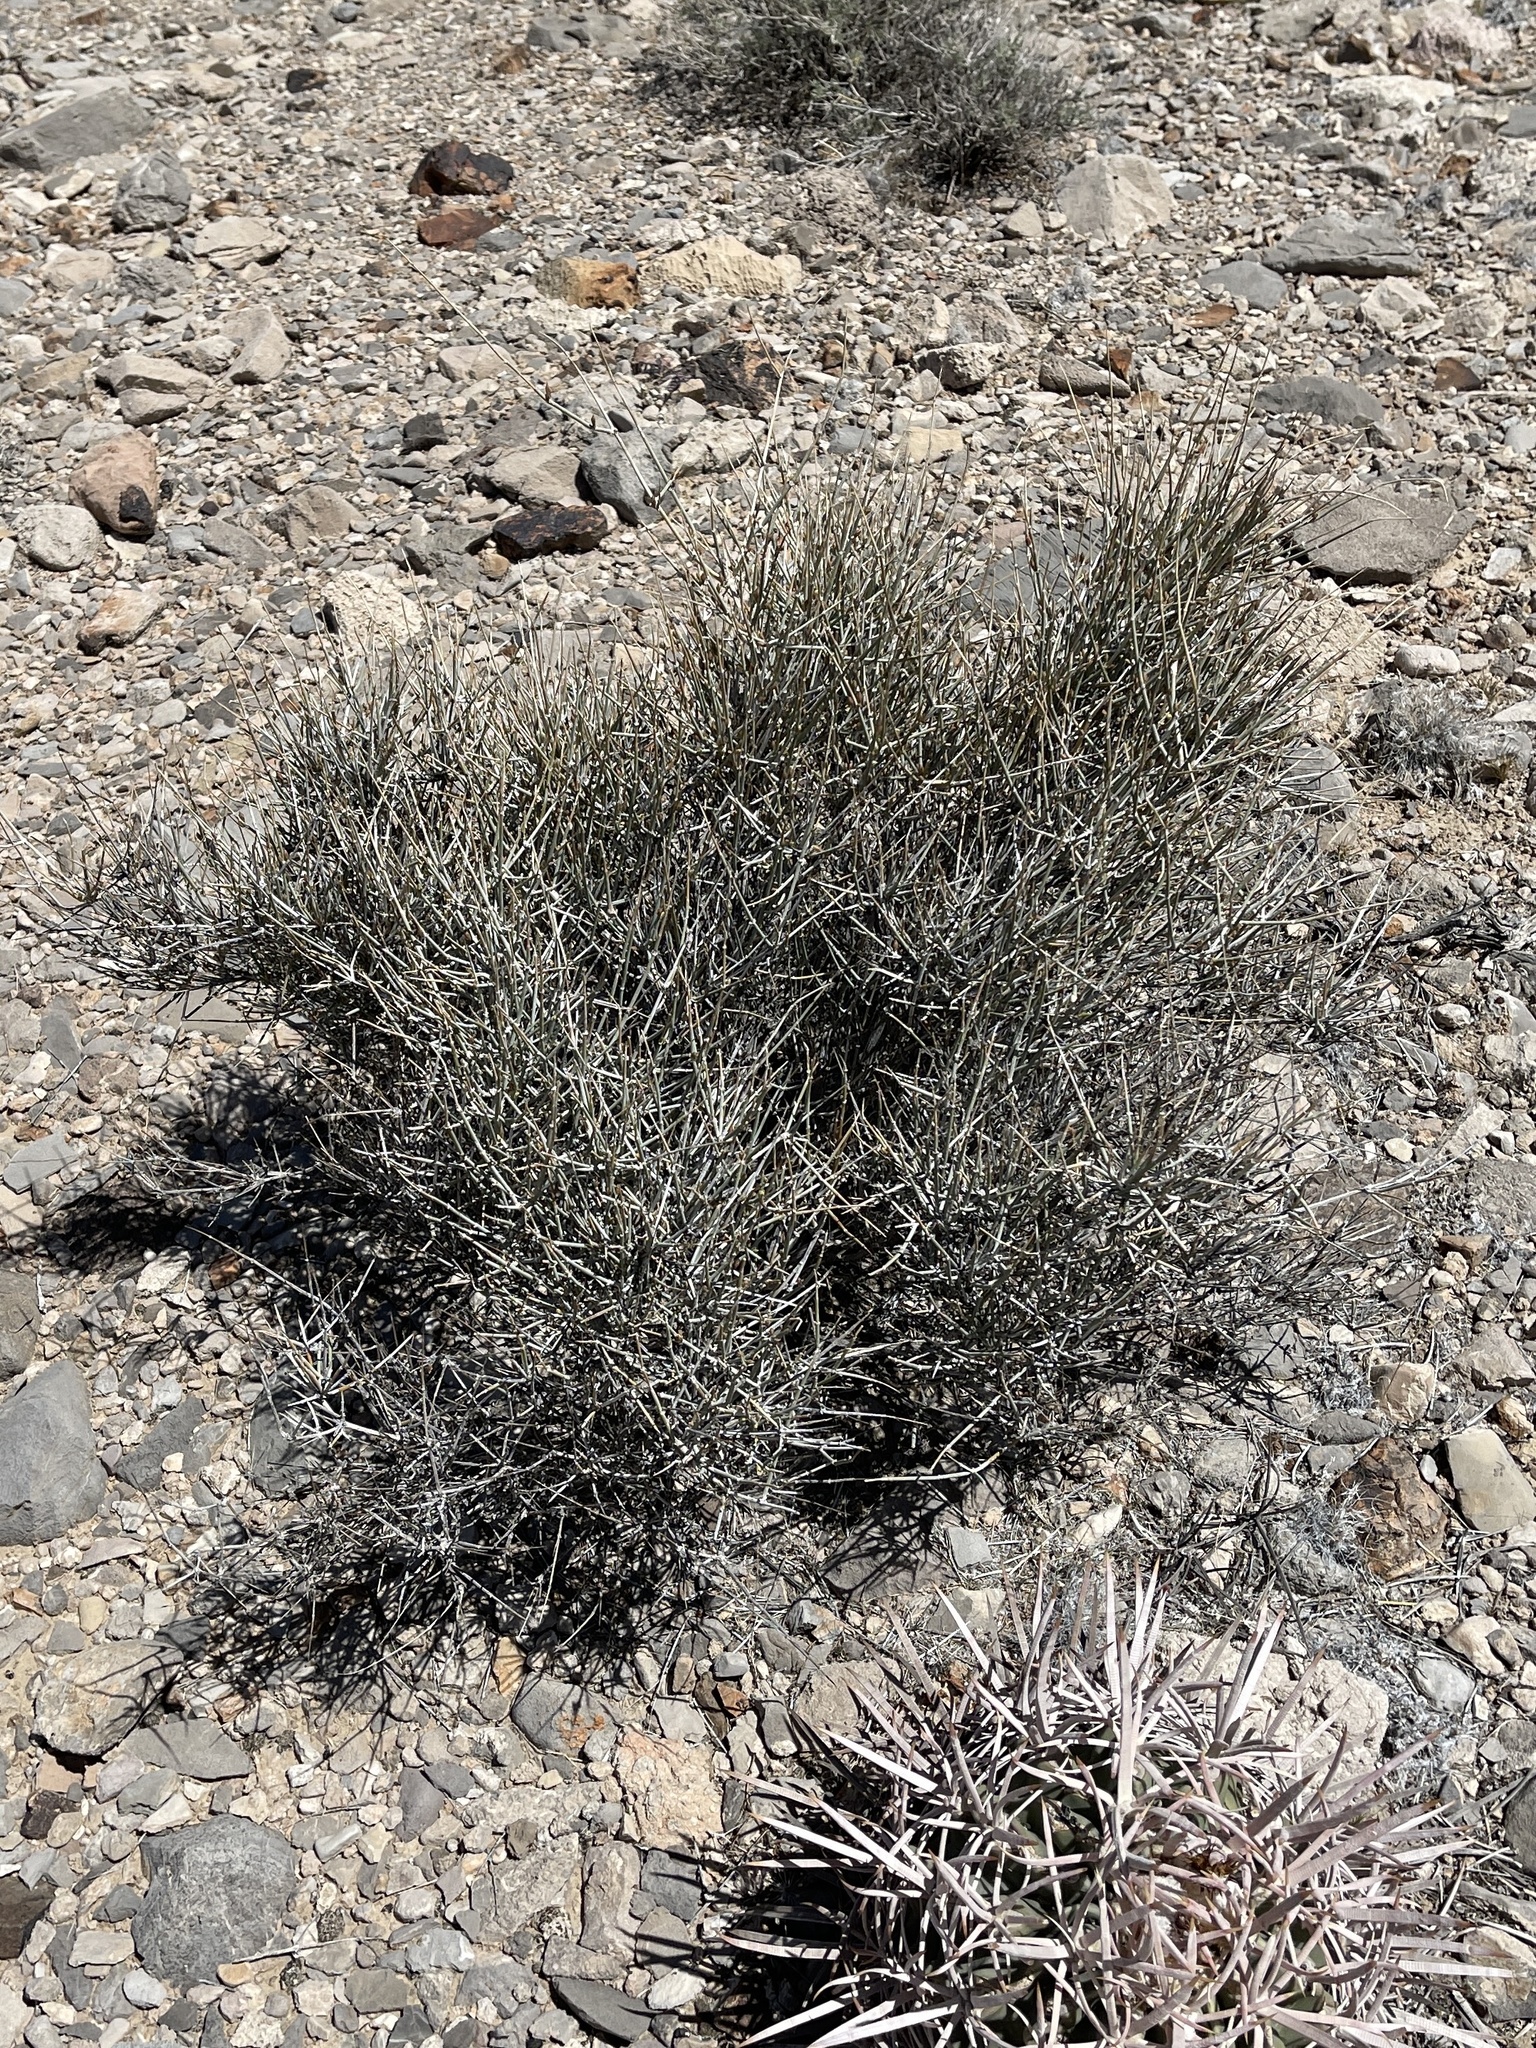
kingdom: Plantae
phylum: Tracheophyta
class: Gnetopsida
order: Ephedrales
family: Ephedraceae
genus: Ephedra
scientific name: Ephedra nevadensis
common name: Gray ephedra
